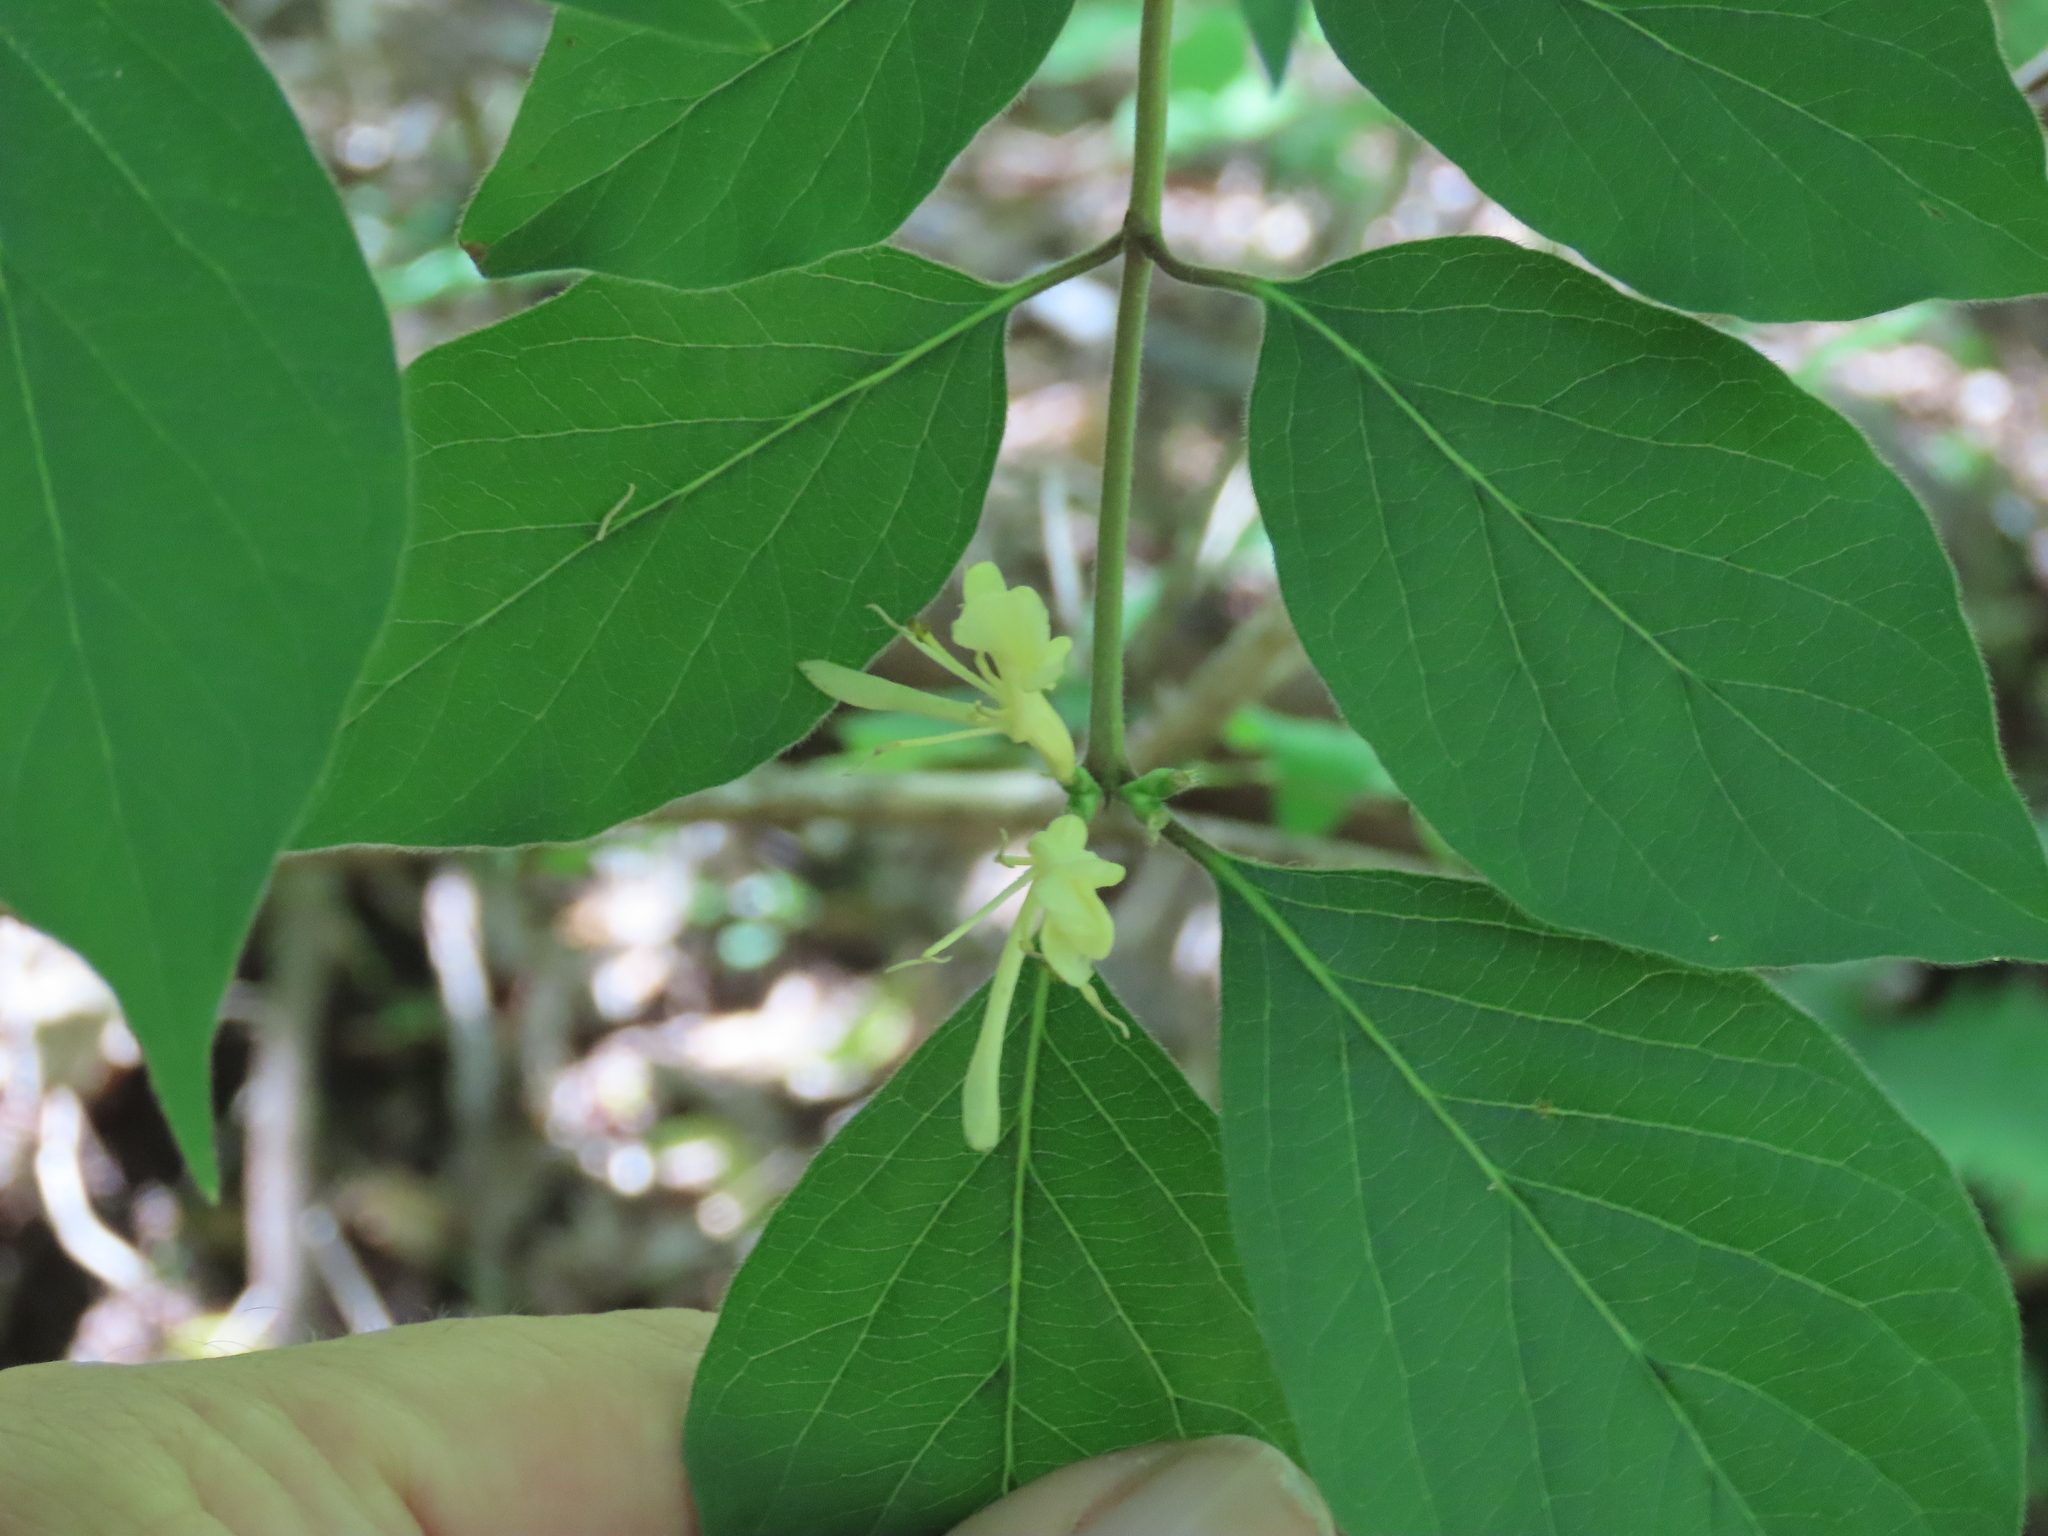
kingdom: Plantae
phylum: Tracheophyta
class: Magnoliopsida
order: Dipsacales
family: Caprifoliaceae
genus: Lonicera
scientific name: Lonicera maackii
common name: Amur honeysuckle
